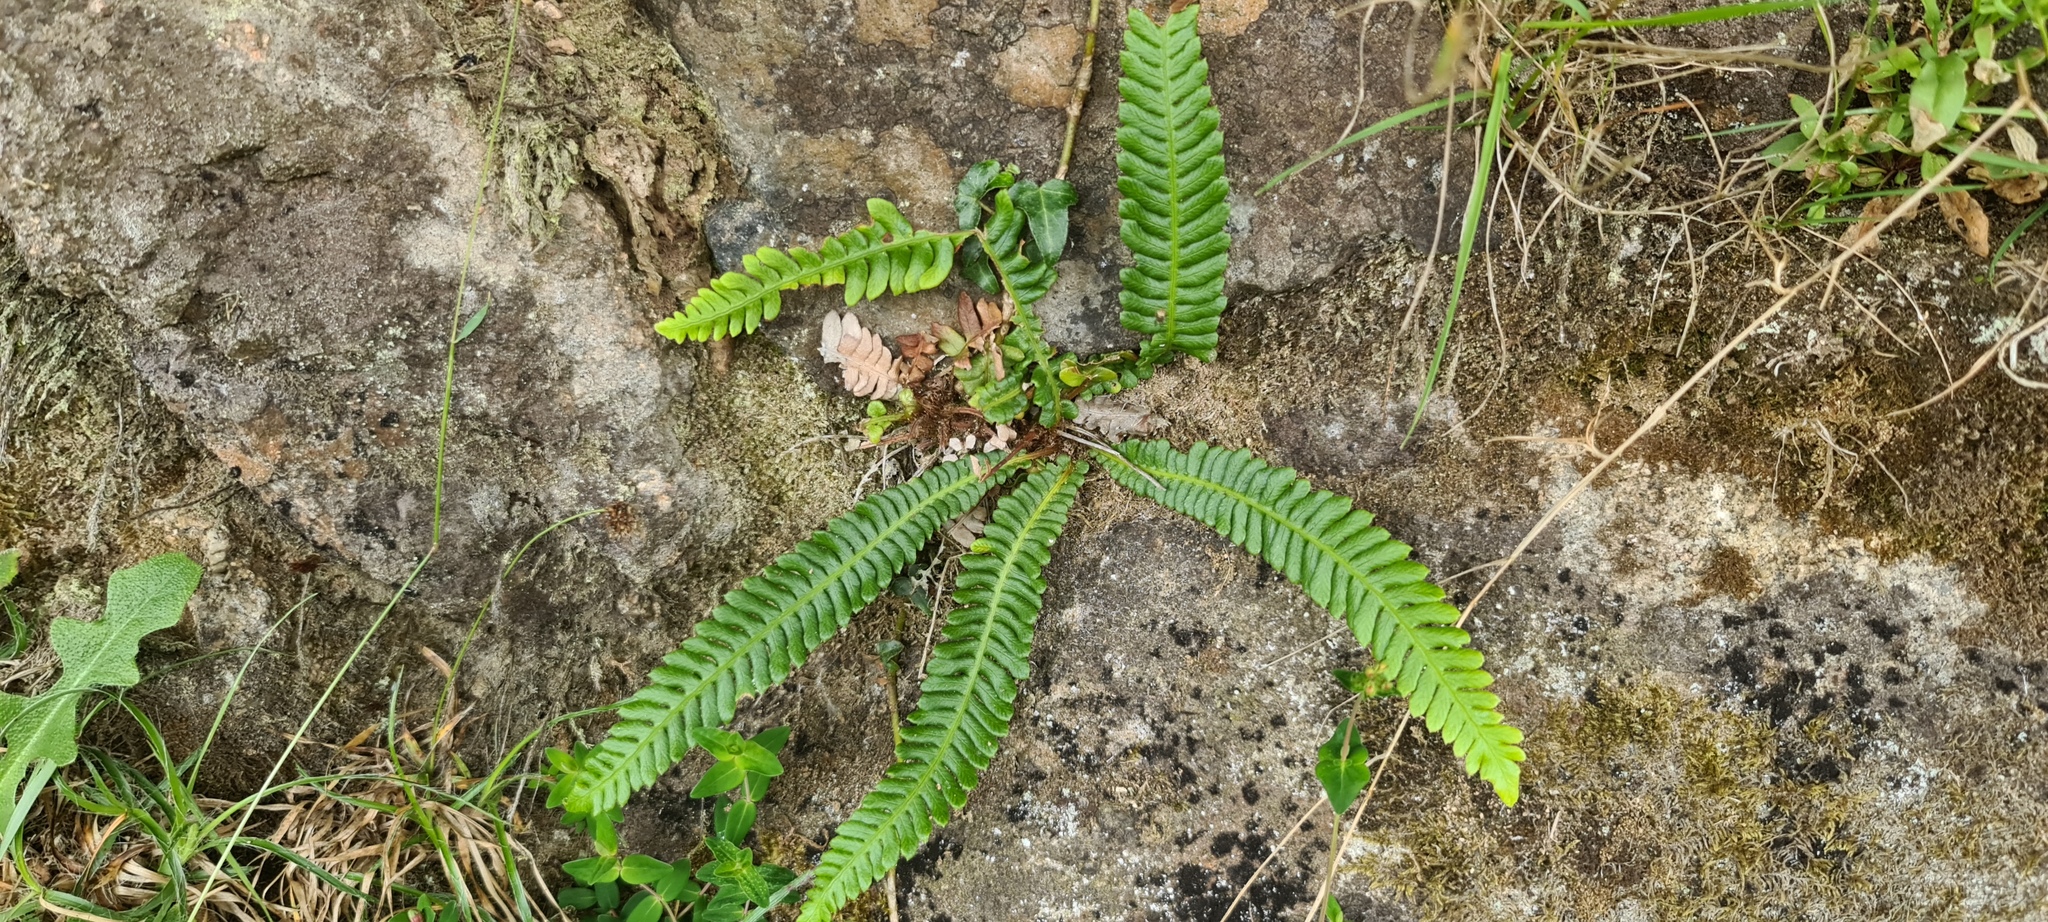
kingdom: Plantae
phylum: Tracheophyta
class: Polypodiopsida
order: Polypodiales
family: Blechnaceae
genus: Struthiopteris
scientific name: Struthiopteris spicant
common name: Deer fern
